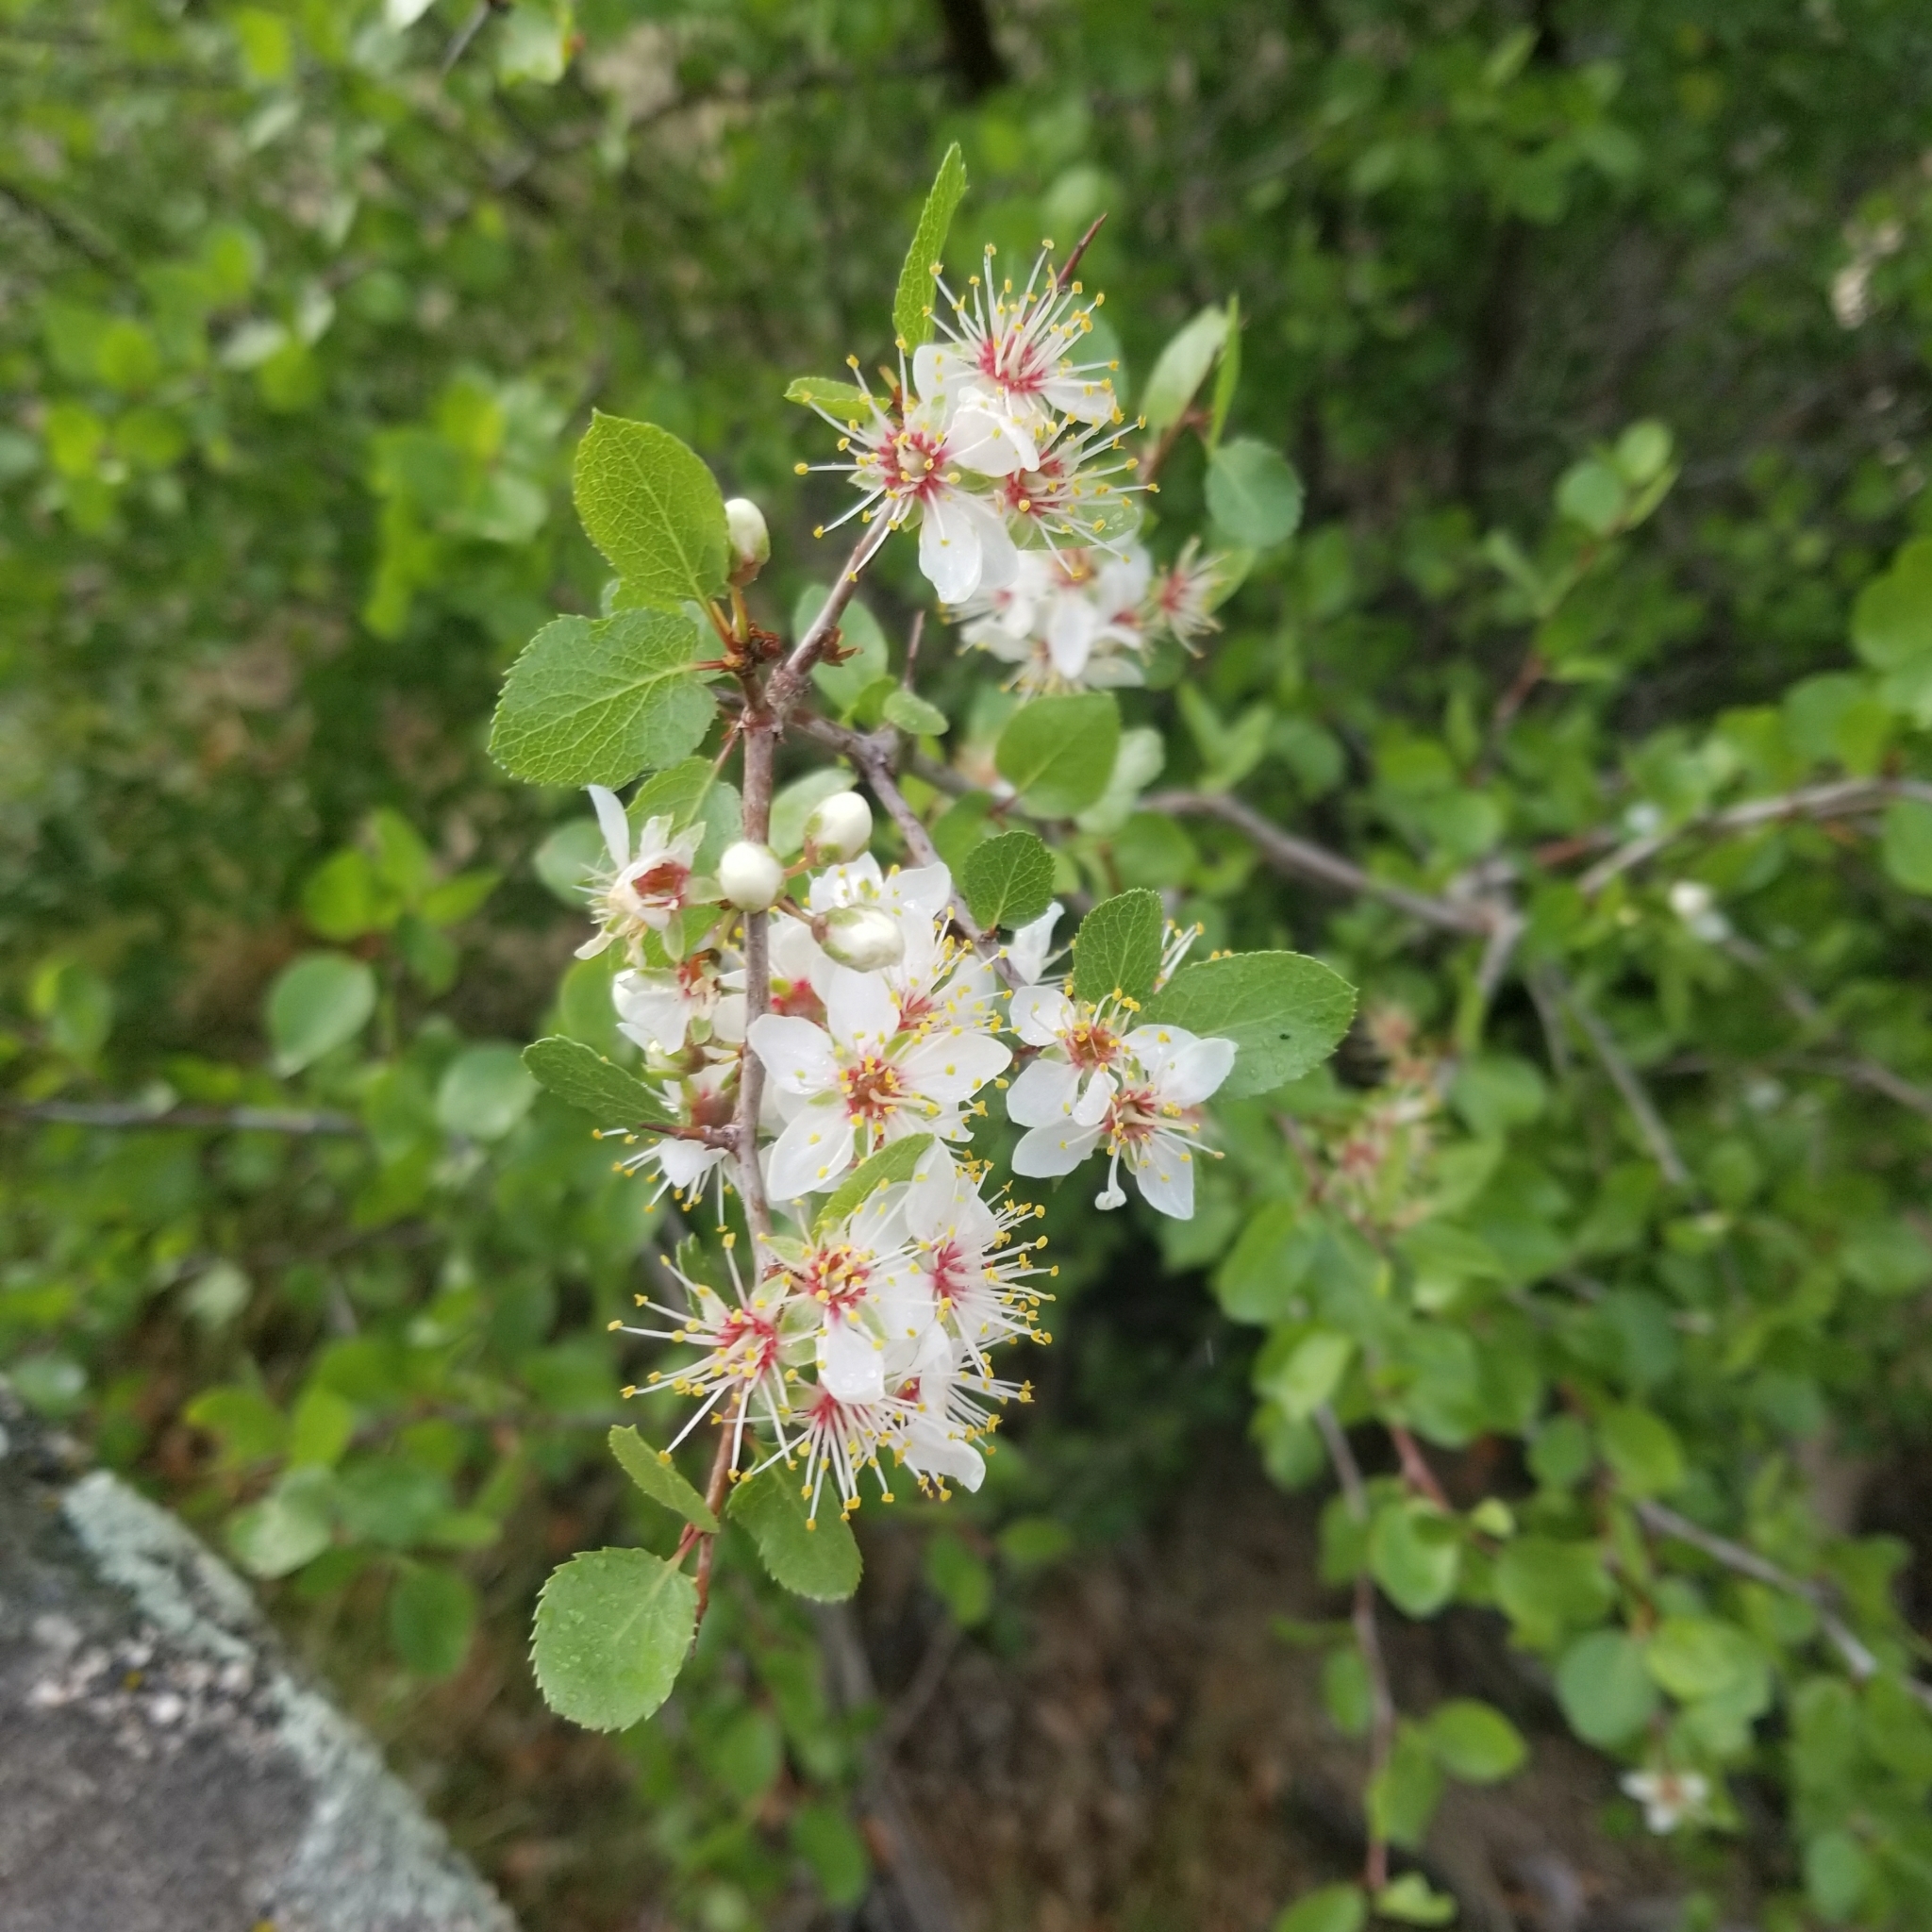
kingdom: Plantae
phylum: Tracheophyta
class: Magnoliopsida
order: Rosales
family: Rosaceae
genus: Prunus
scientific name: Prunus fremontii
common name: Desert apricot
